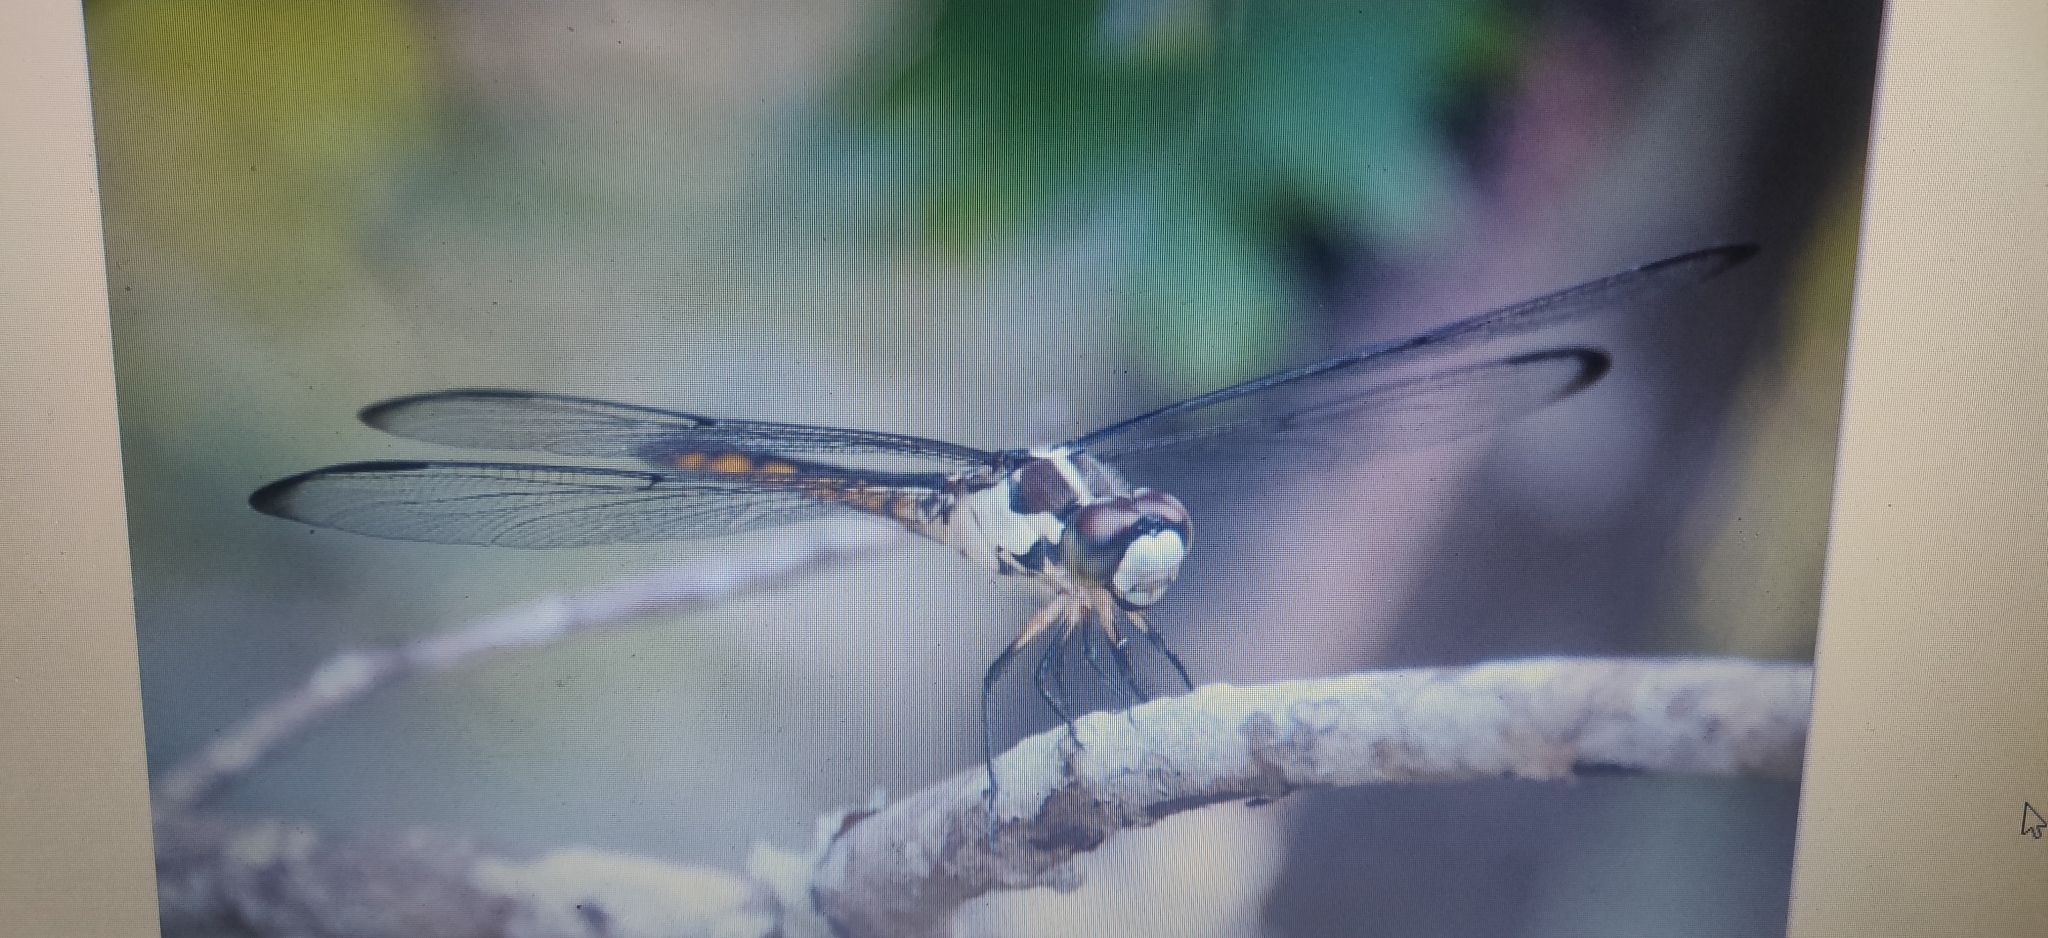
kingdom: Animalia
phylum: Arthropoda
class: Insecta
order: Odonata
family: Libellulidae
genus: Libellula
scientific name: Libellula vibrans
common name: Great blue skimmer
